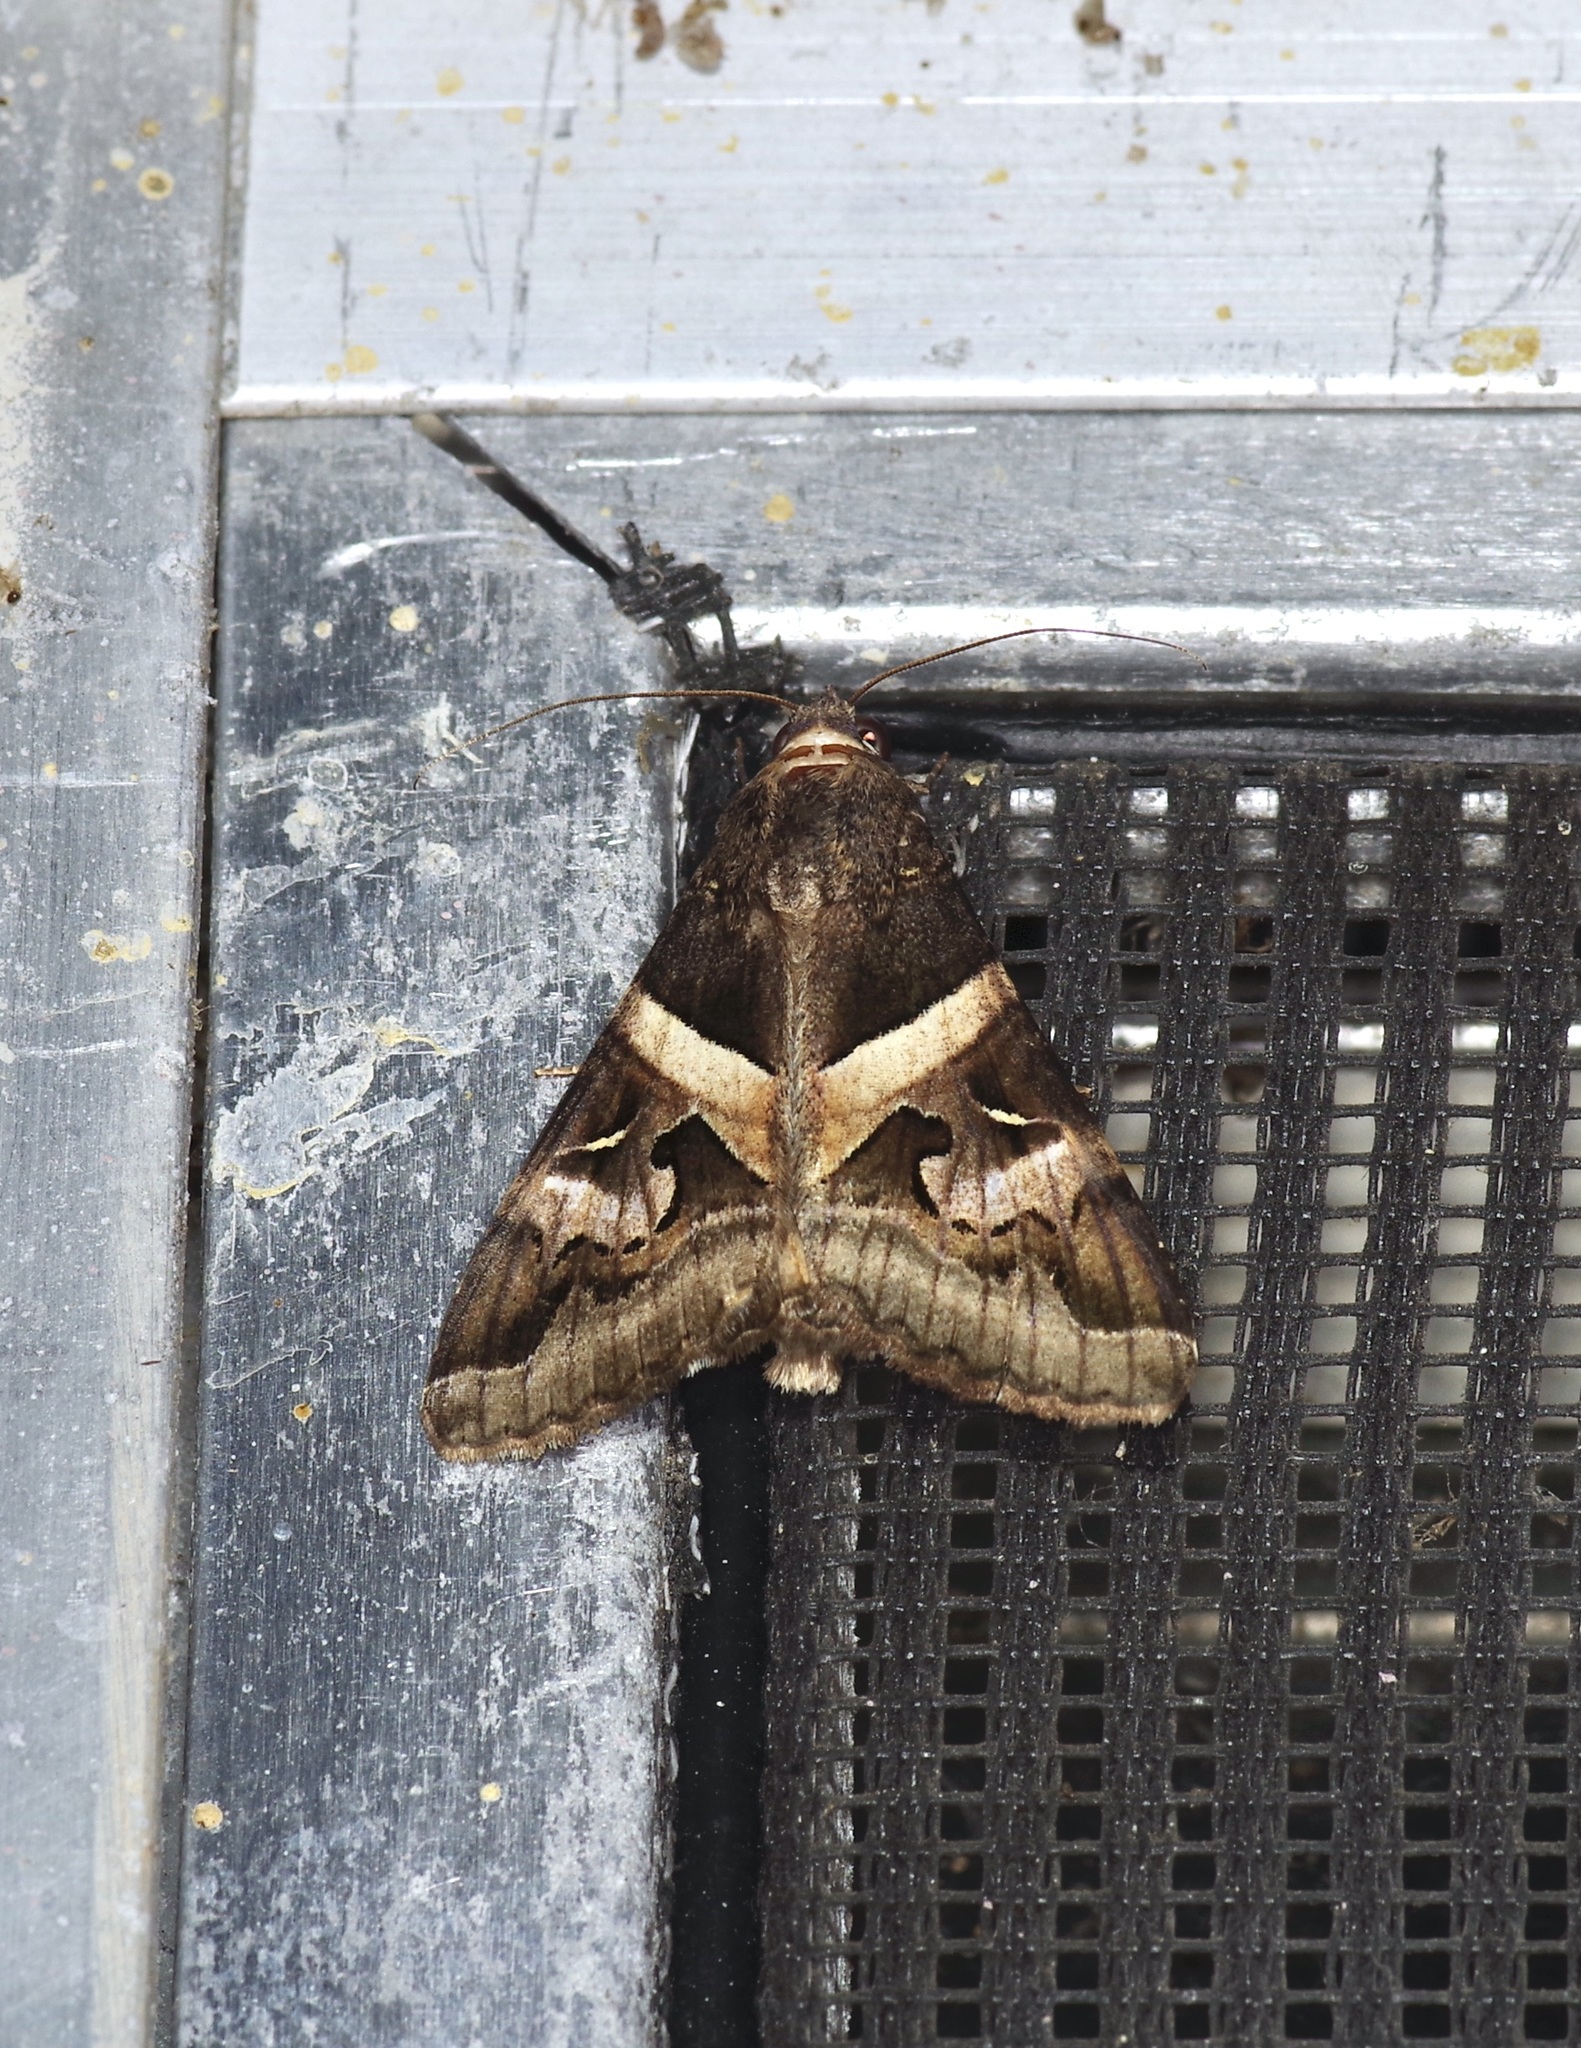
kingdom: Animalia
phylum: Arthropoda
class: Insecta
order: Lepidoptera
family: Erebidae
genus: Melipotis
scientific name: Melipotis indomita
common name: Moth
